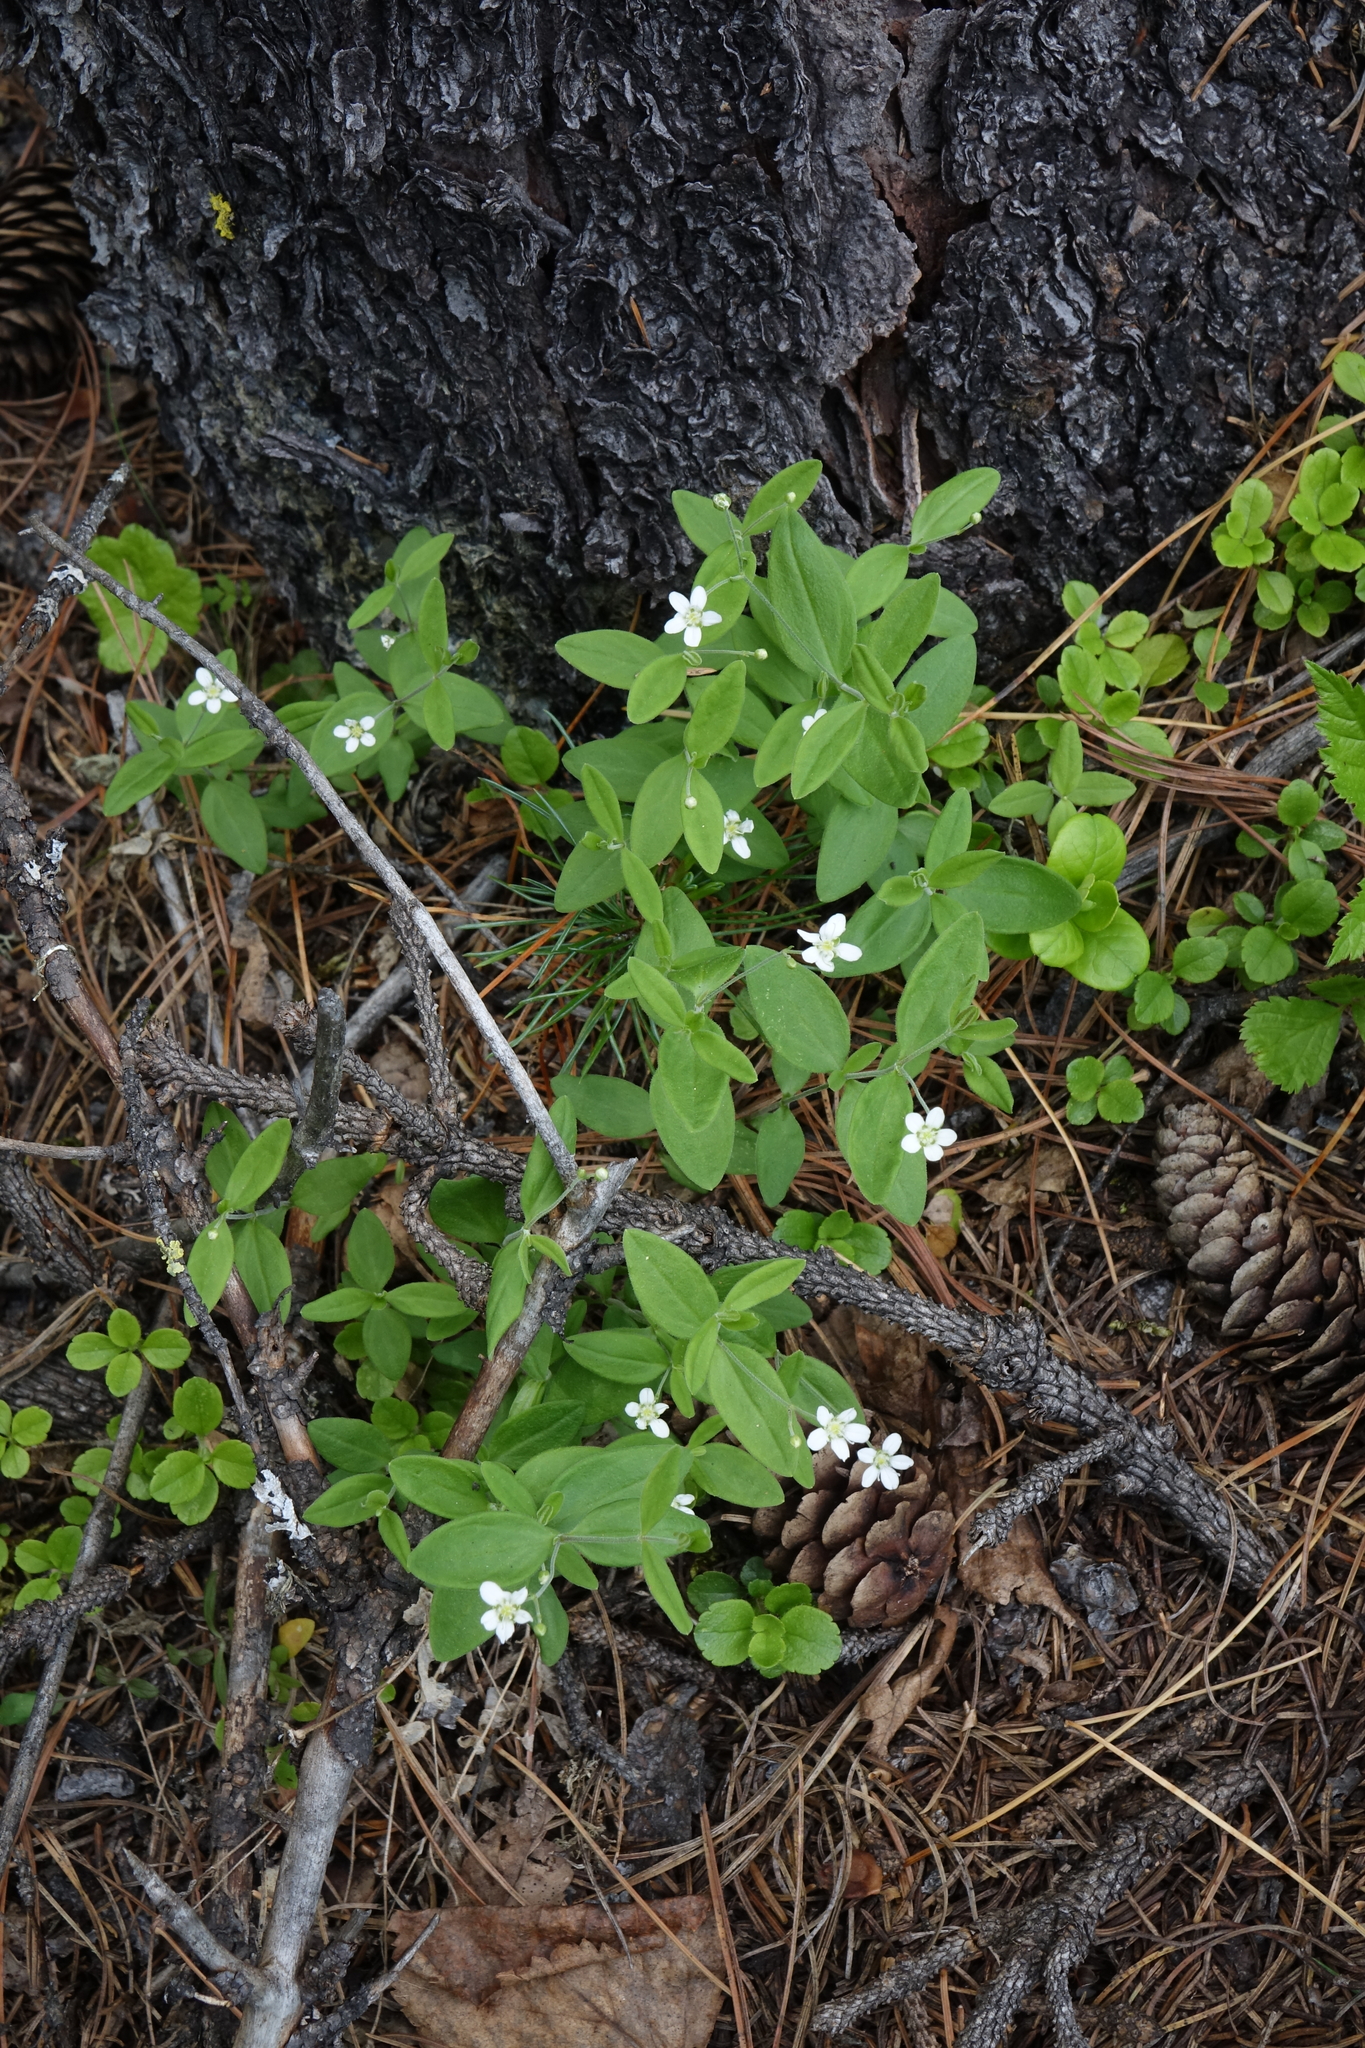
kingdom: Plantae
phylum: Tracheophyta
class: Magnoliopsida
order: Caryophyllales
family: Caryophyllaceae
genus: Moehringia
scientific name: Moehringia lateriflora
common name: Blunt-leaved sandwort
